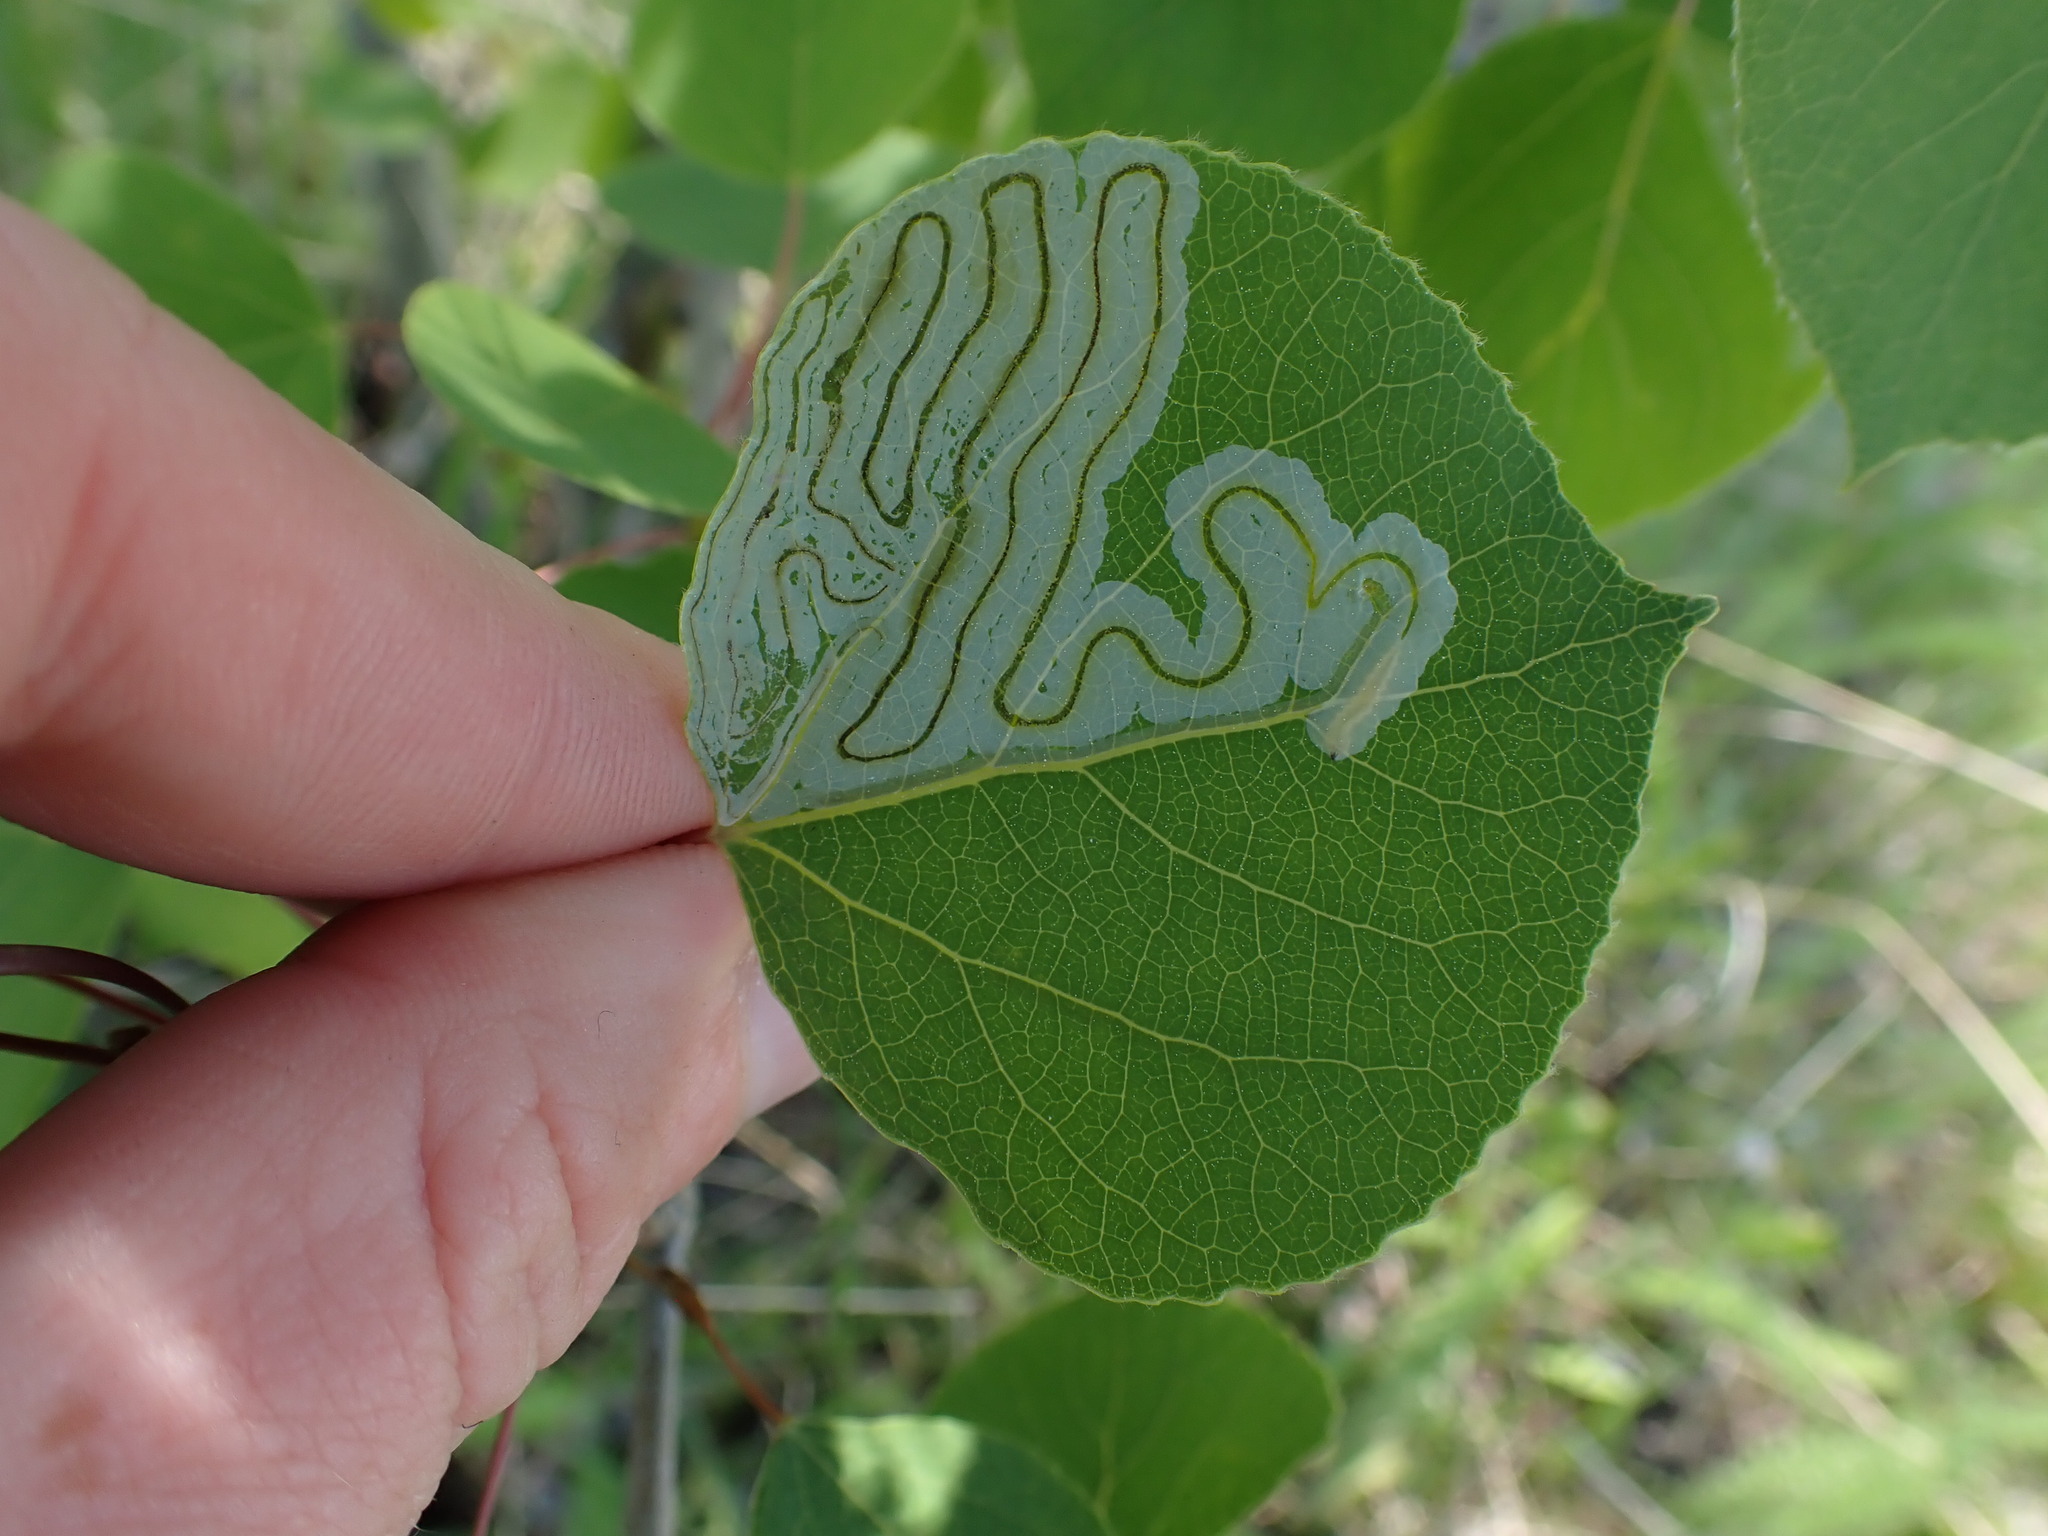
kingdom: Animalia
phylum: Arthropoda
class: Insecta
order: Lepidoptera
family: Gracillariidae
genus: Phyllocnistis
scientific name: Phyllocnistis populiella
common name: Aspen serpentine leafminer moth
